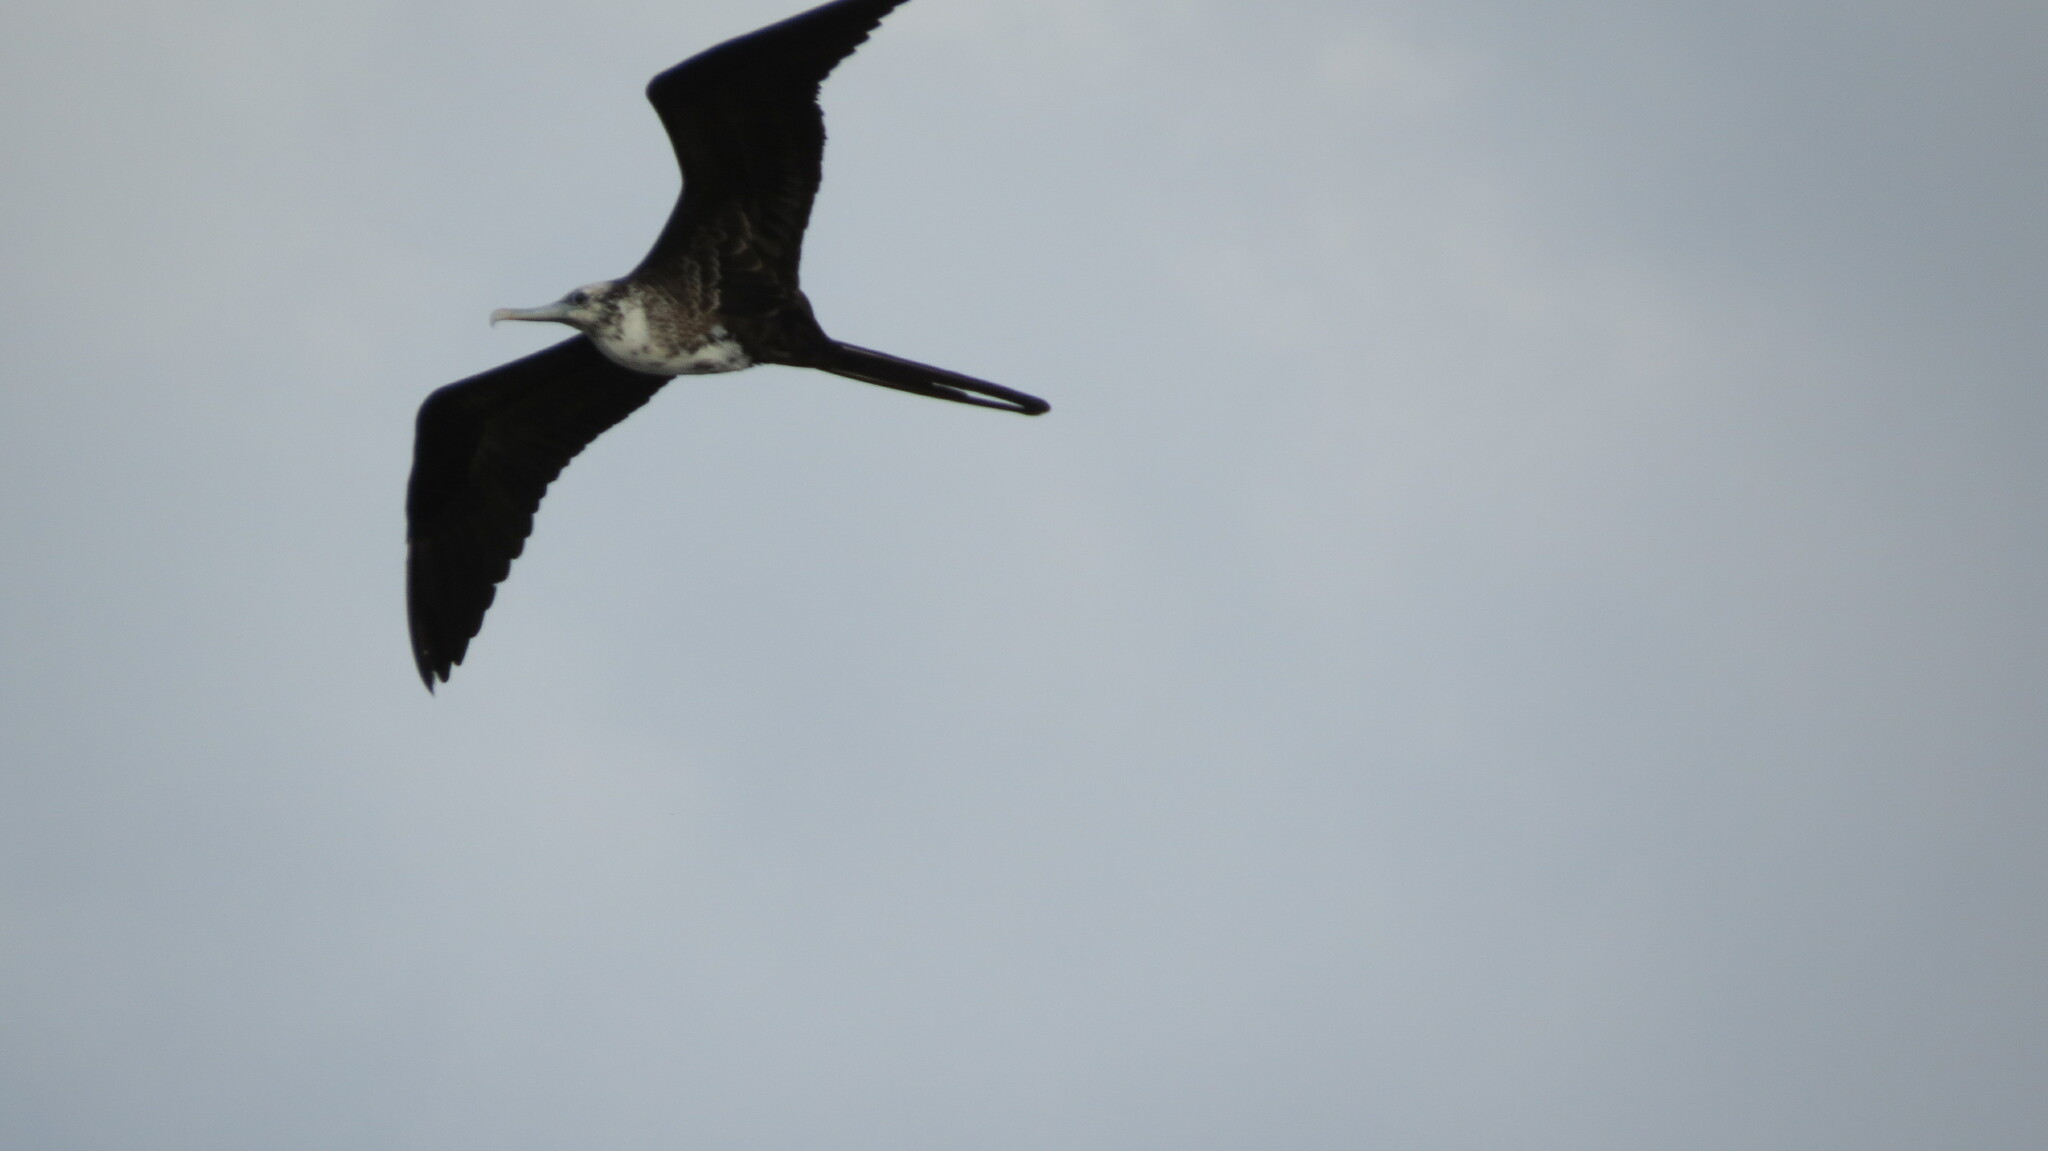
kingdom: Animalia
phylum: Chordata
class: Aves
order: Suliformes
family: Fregatidae
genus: Fregata
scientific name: Fregata magnificens
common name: Magnificent frigatebird
